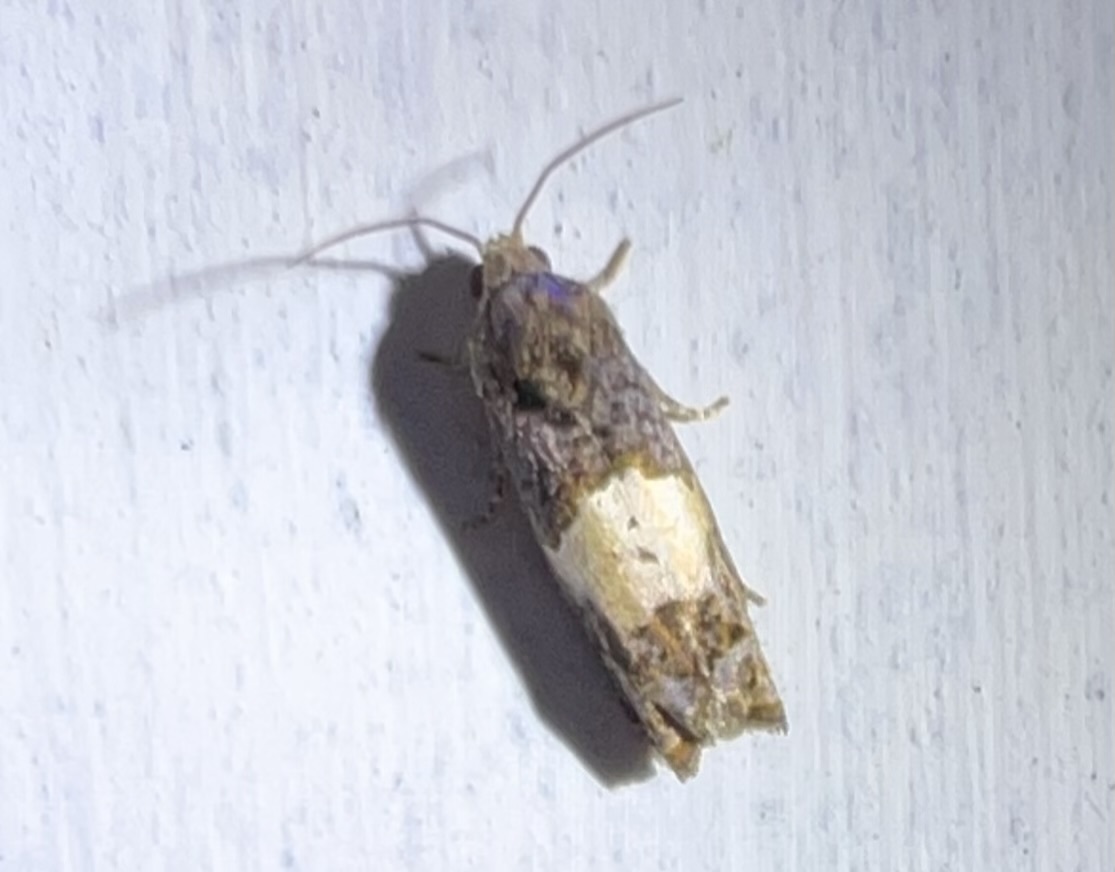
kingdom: Animalia
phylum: Arthropoda
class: Insecta
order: Lepidoptera
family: Tortricidae
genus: Epiblema
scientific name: Epiblema glenni
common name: Glenn's epiblema
